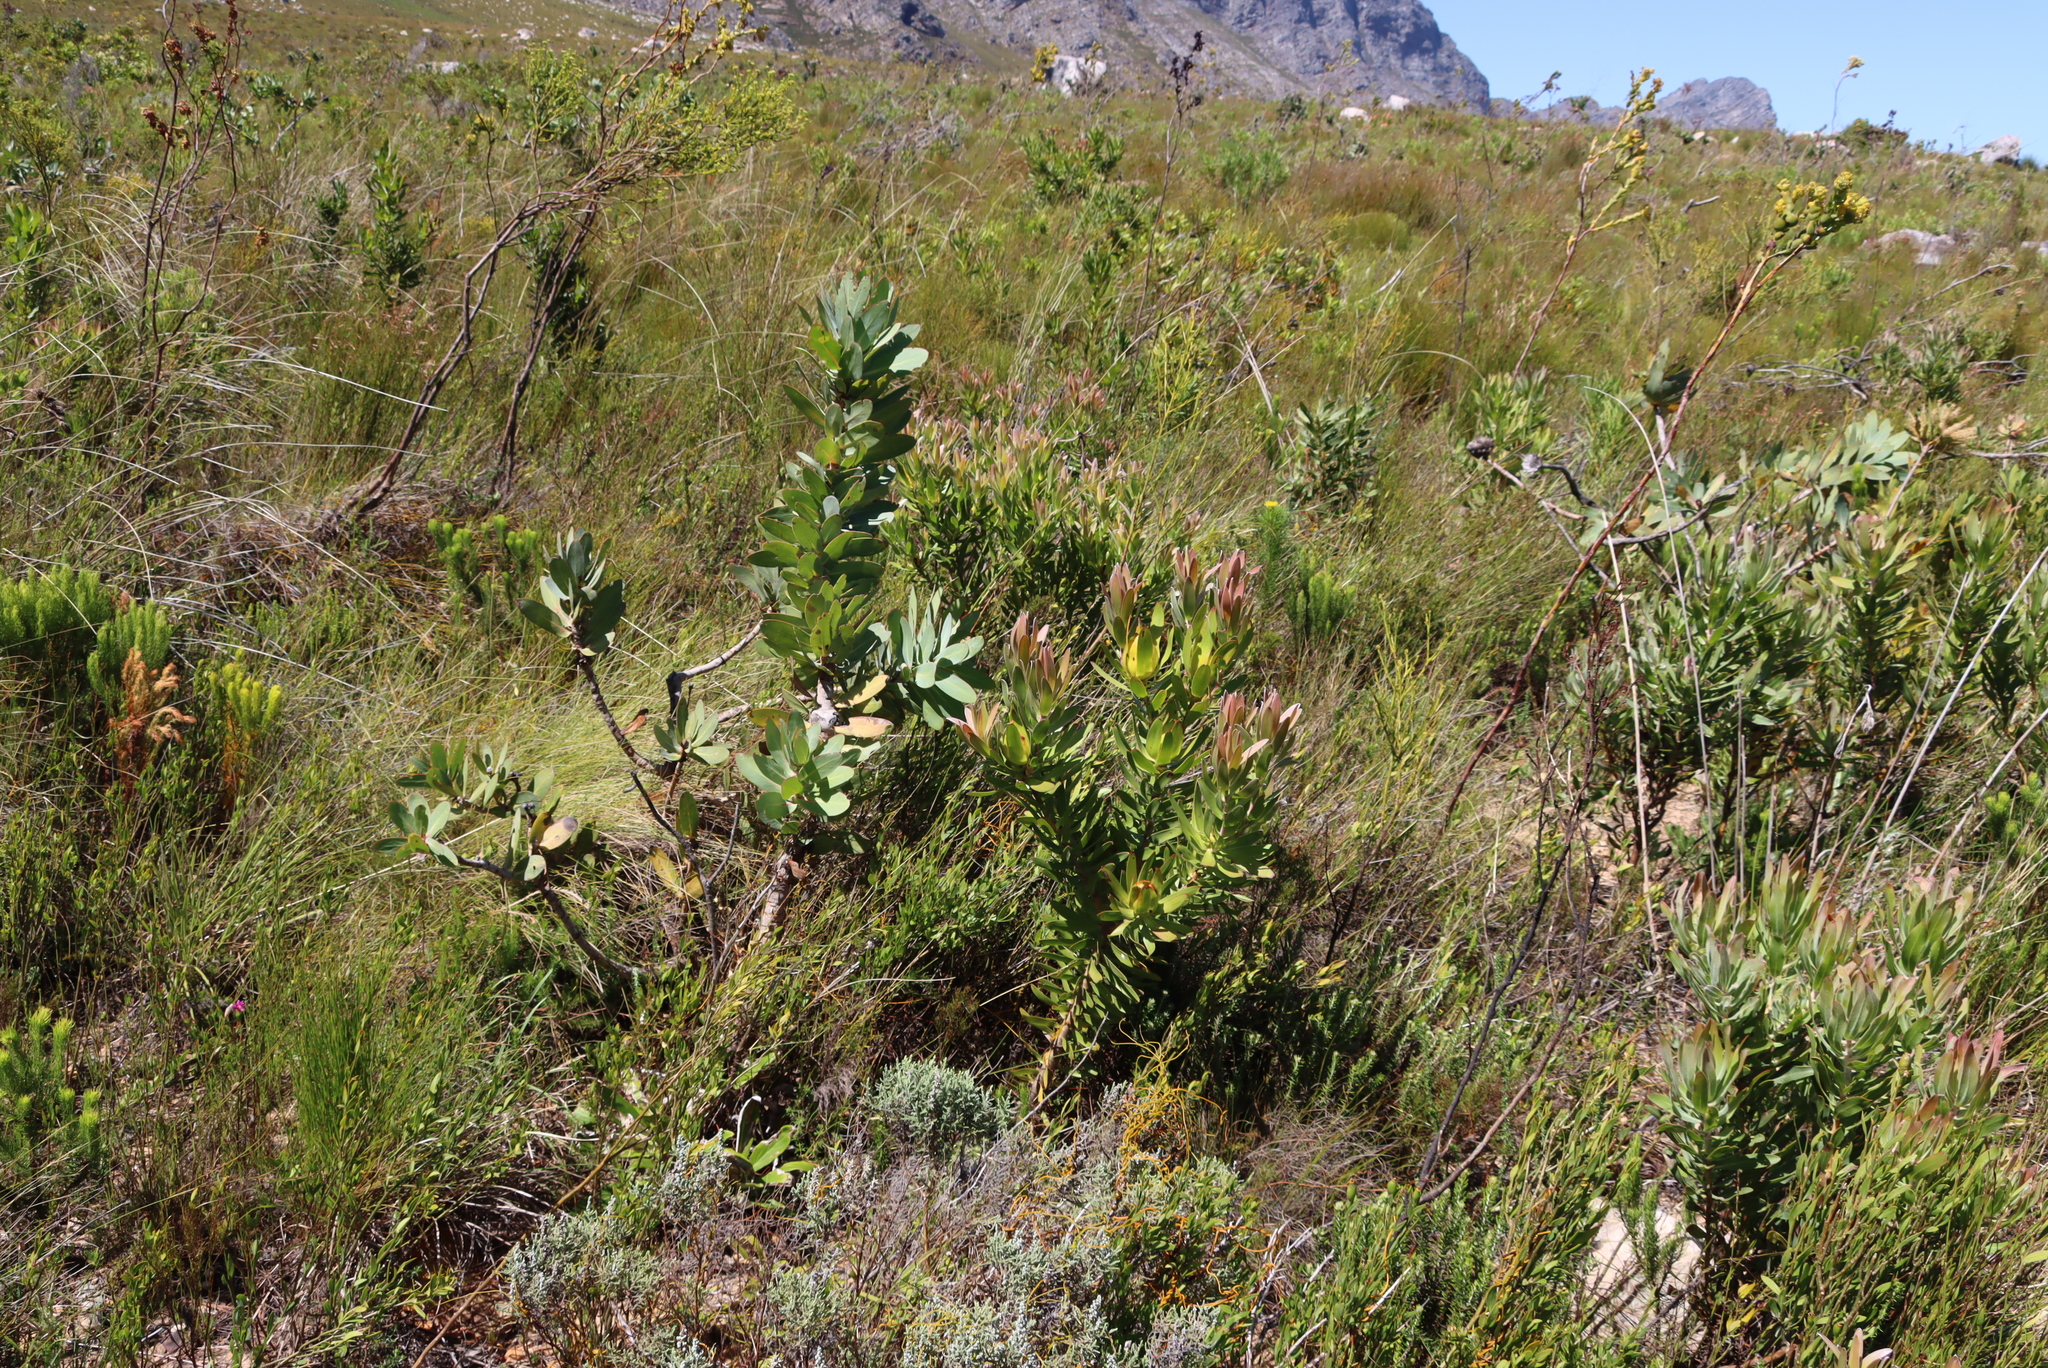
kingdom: Plantae
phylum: Tracheophyta
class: Magnoliopsida
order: Proteales
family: Proteaceae
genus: Leucadendron
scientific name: Leucadendron laureolum
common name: Golden sunshinebush
